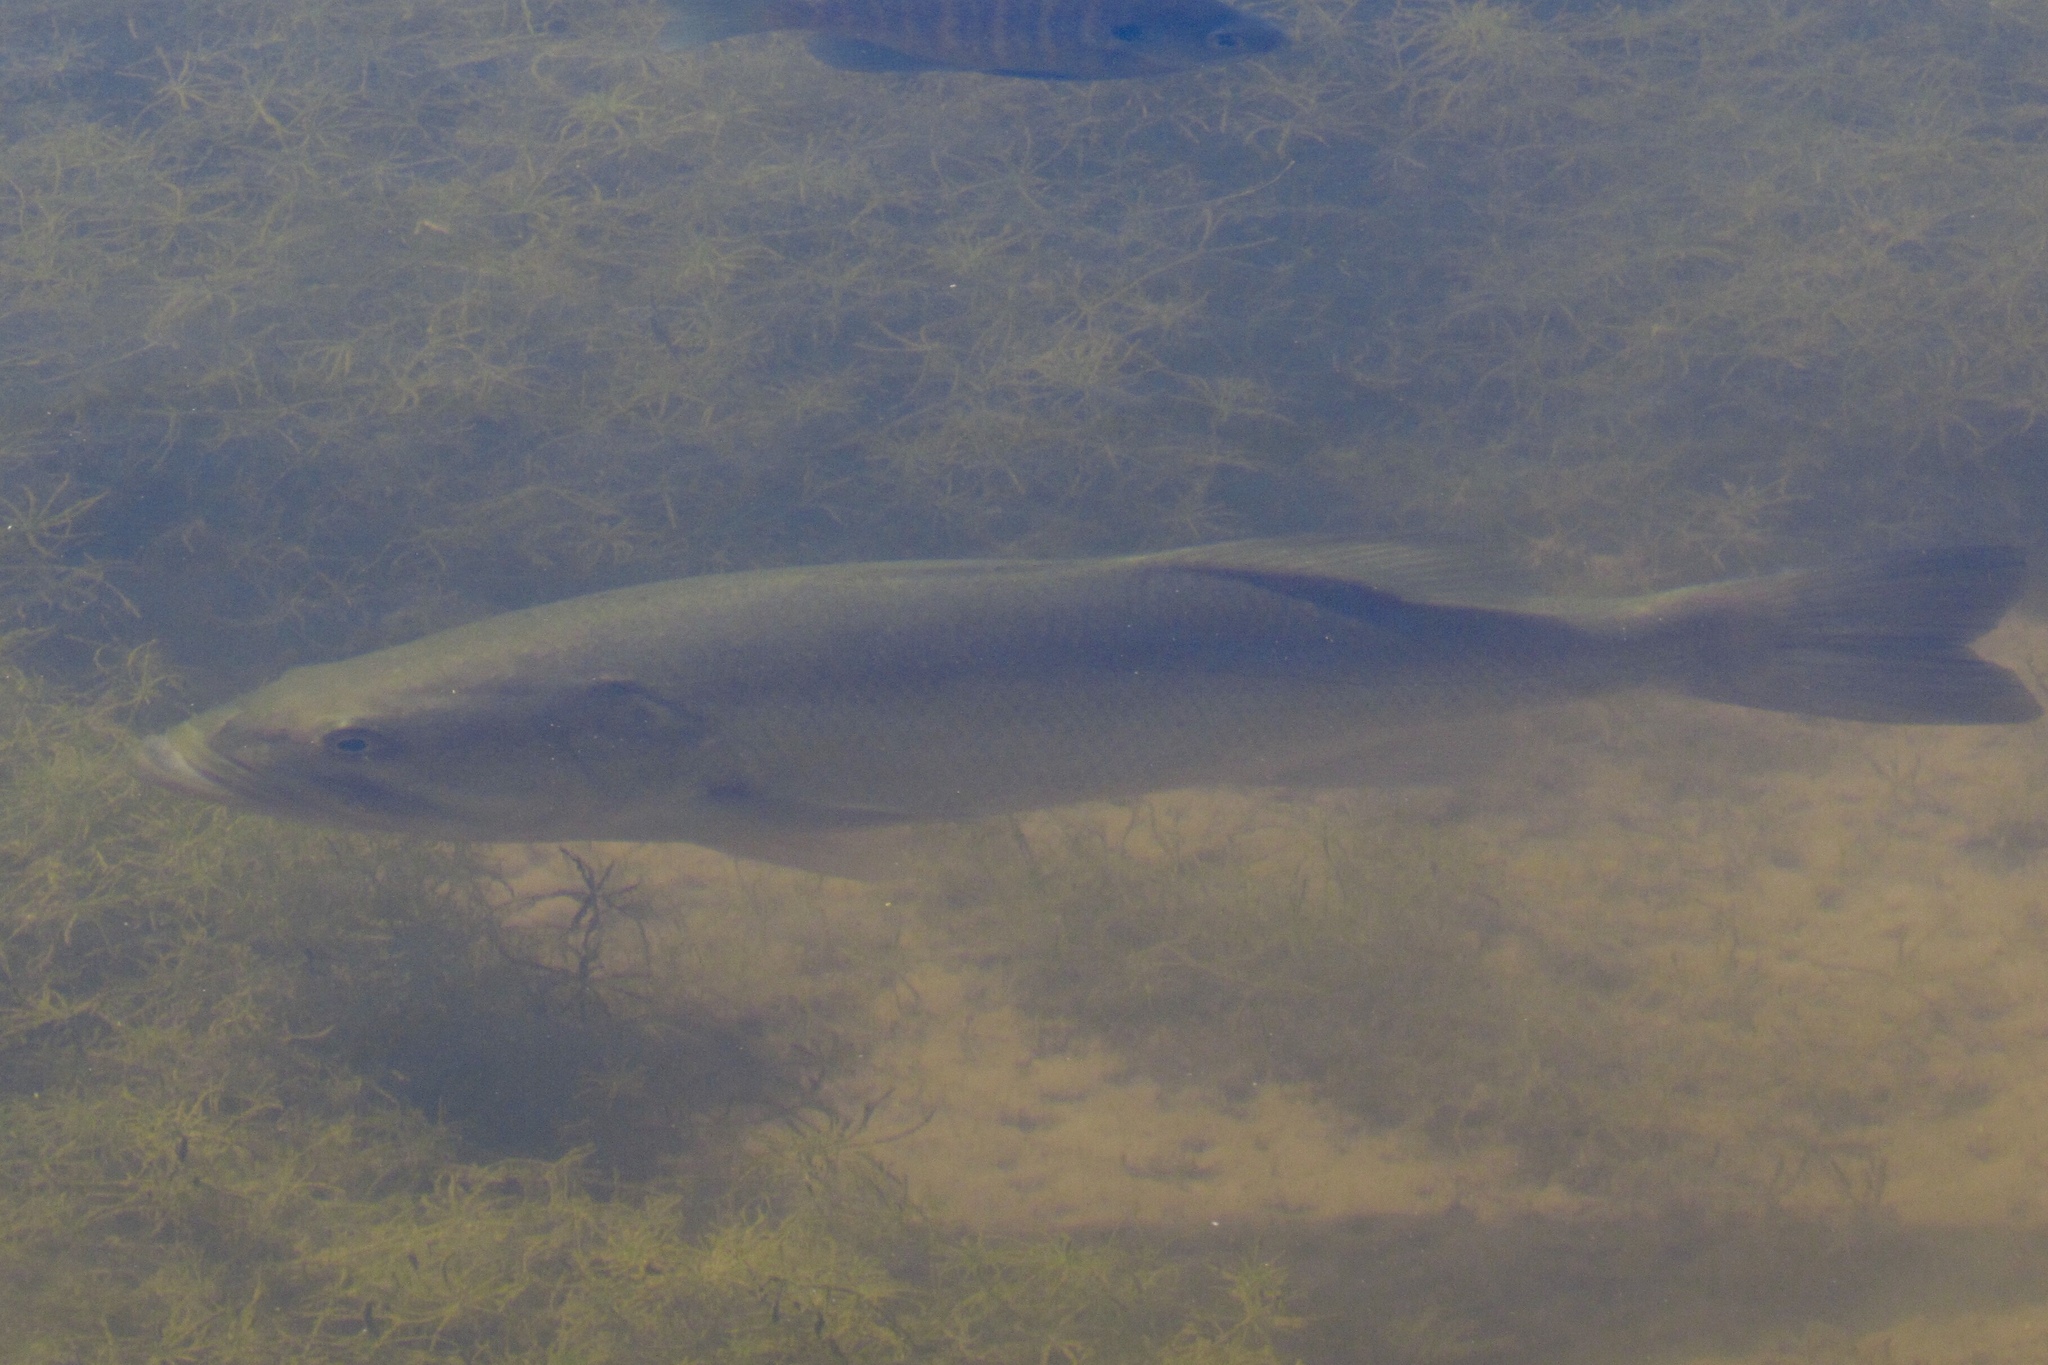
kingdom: Animalia
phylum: Chordata
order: Perciformes
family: Centrarchidae
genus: Micropterus
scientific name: Micropterus
